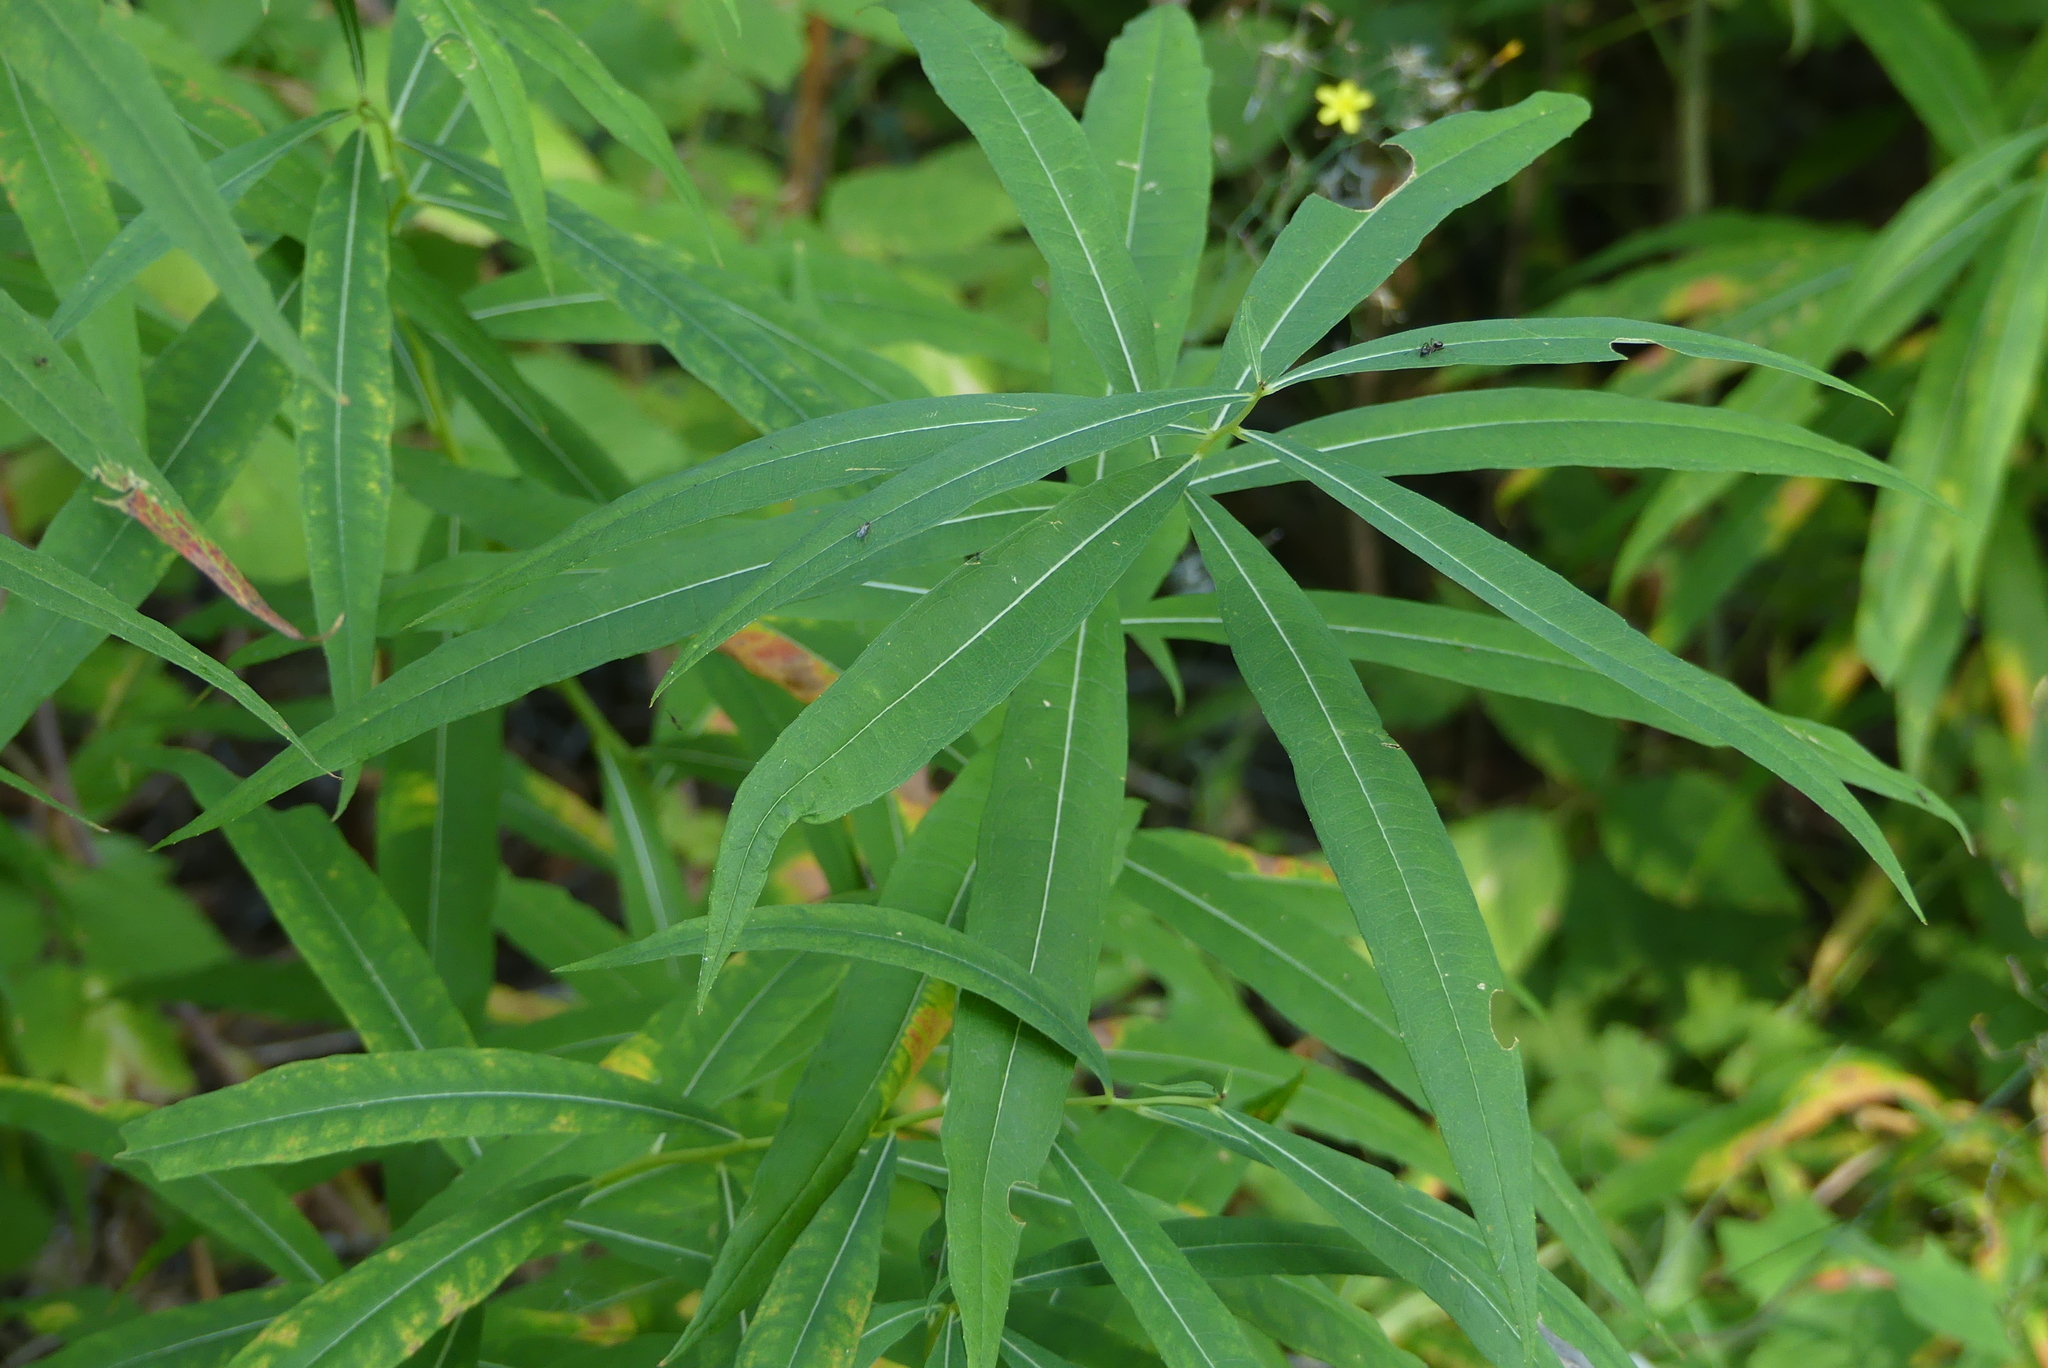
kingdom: Plantae
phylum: Tracheophyta
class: Magnoliopsida
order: Myrtales
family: Onagraceae
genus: Chamaenerion
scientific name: Chamaenerion angustifolium
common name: Fireweed
